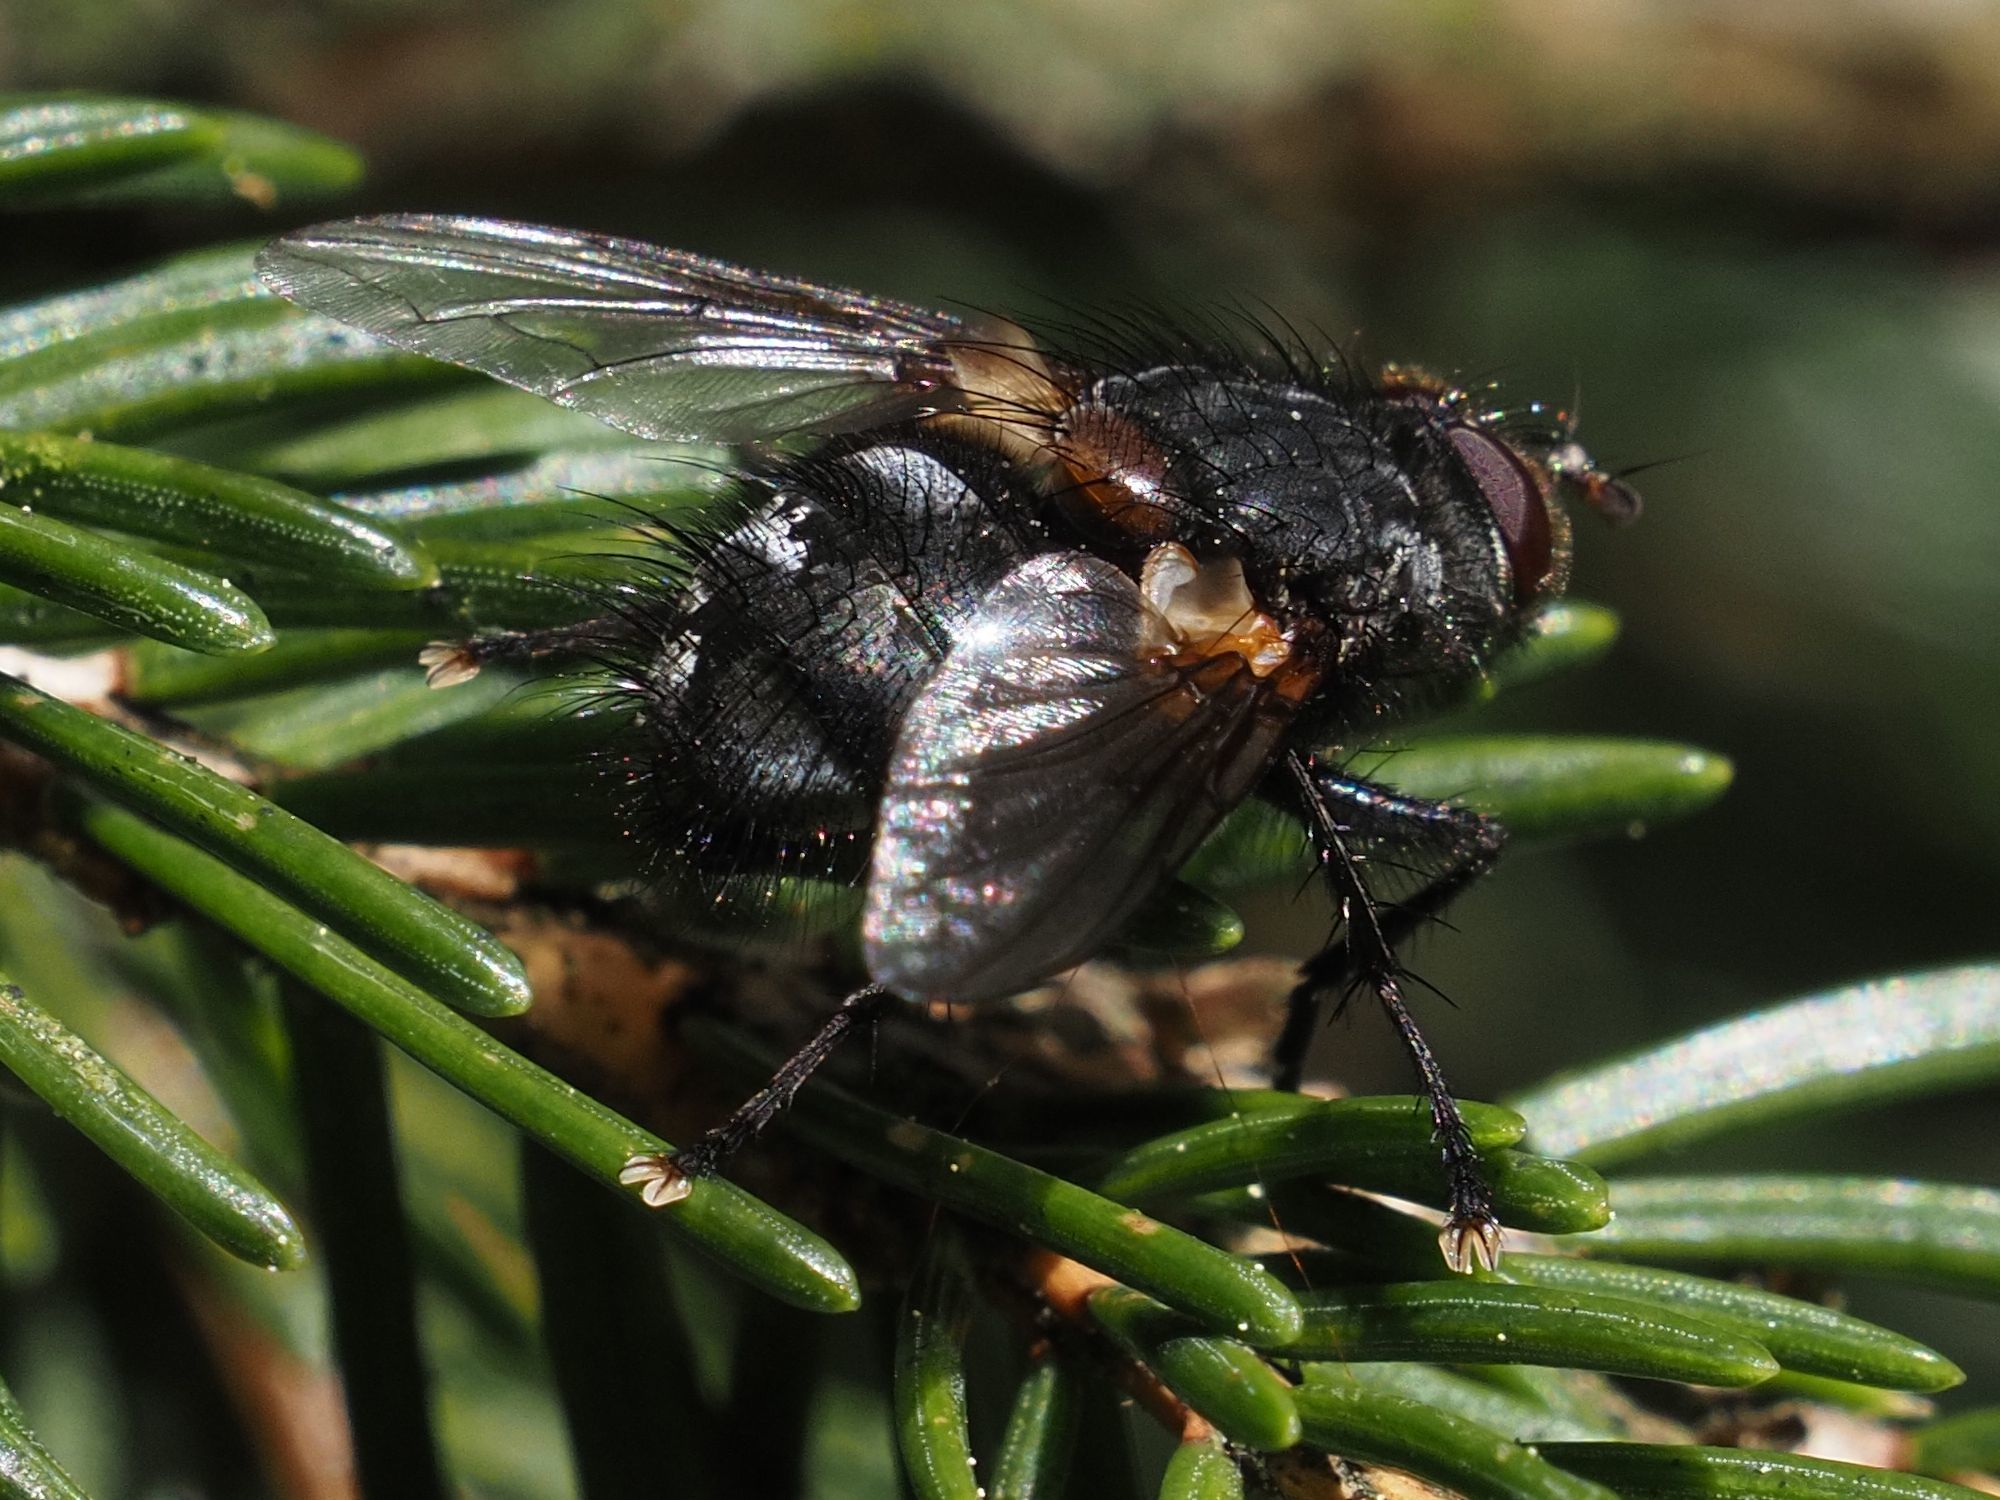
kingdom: Animalia
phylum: Arthropoda
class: Insecta
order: Diptera
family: Tachinidae
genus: Panzeria
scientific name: Panzeria rudis
